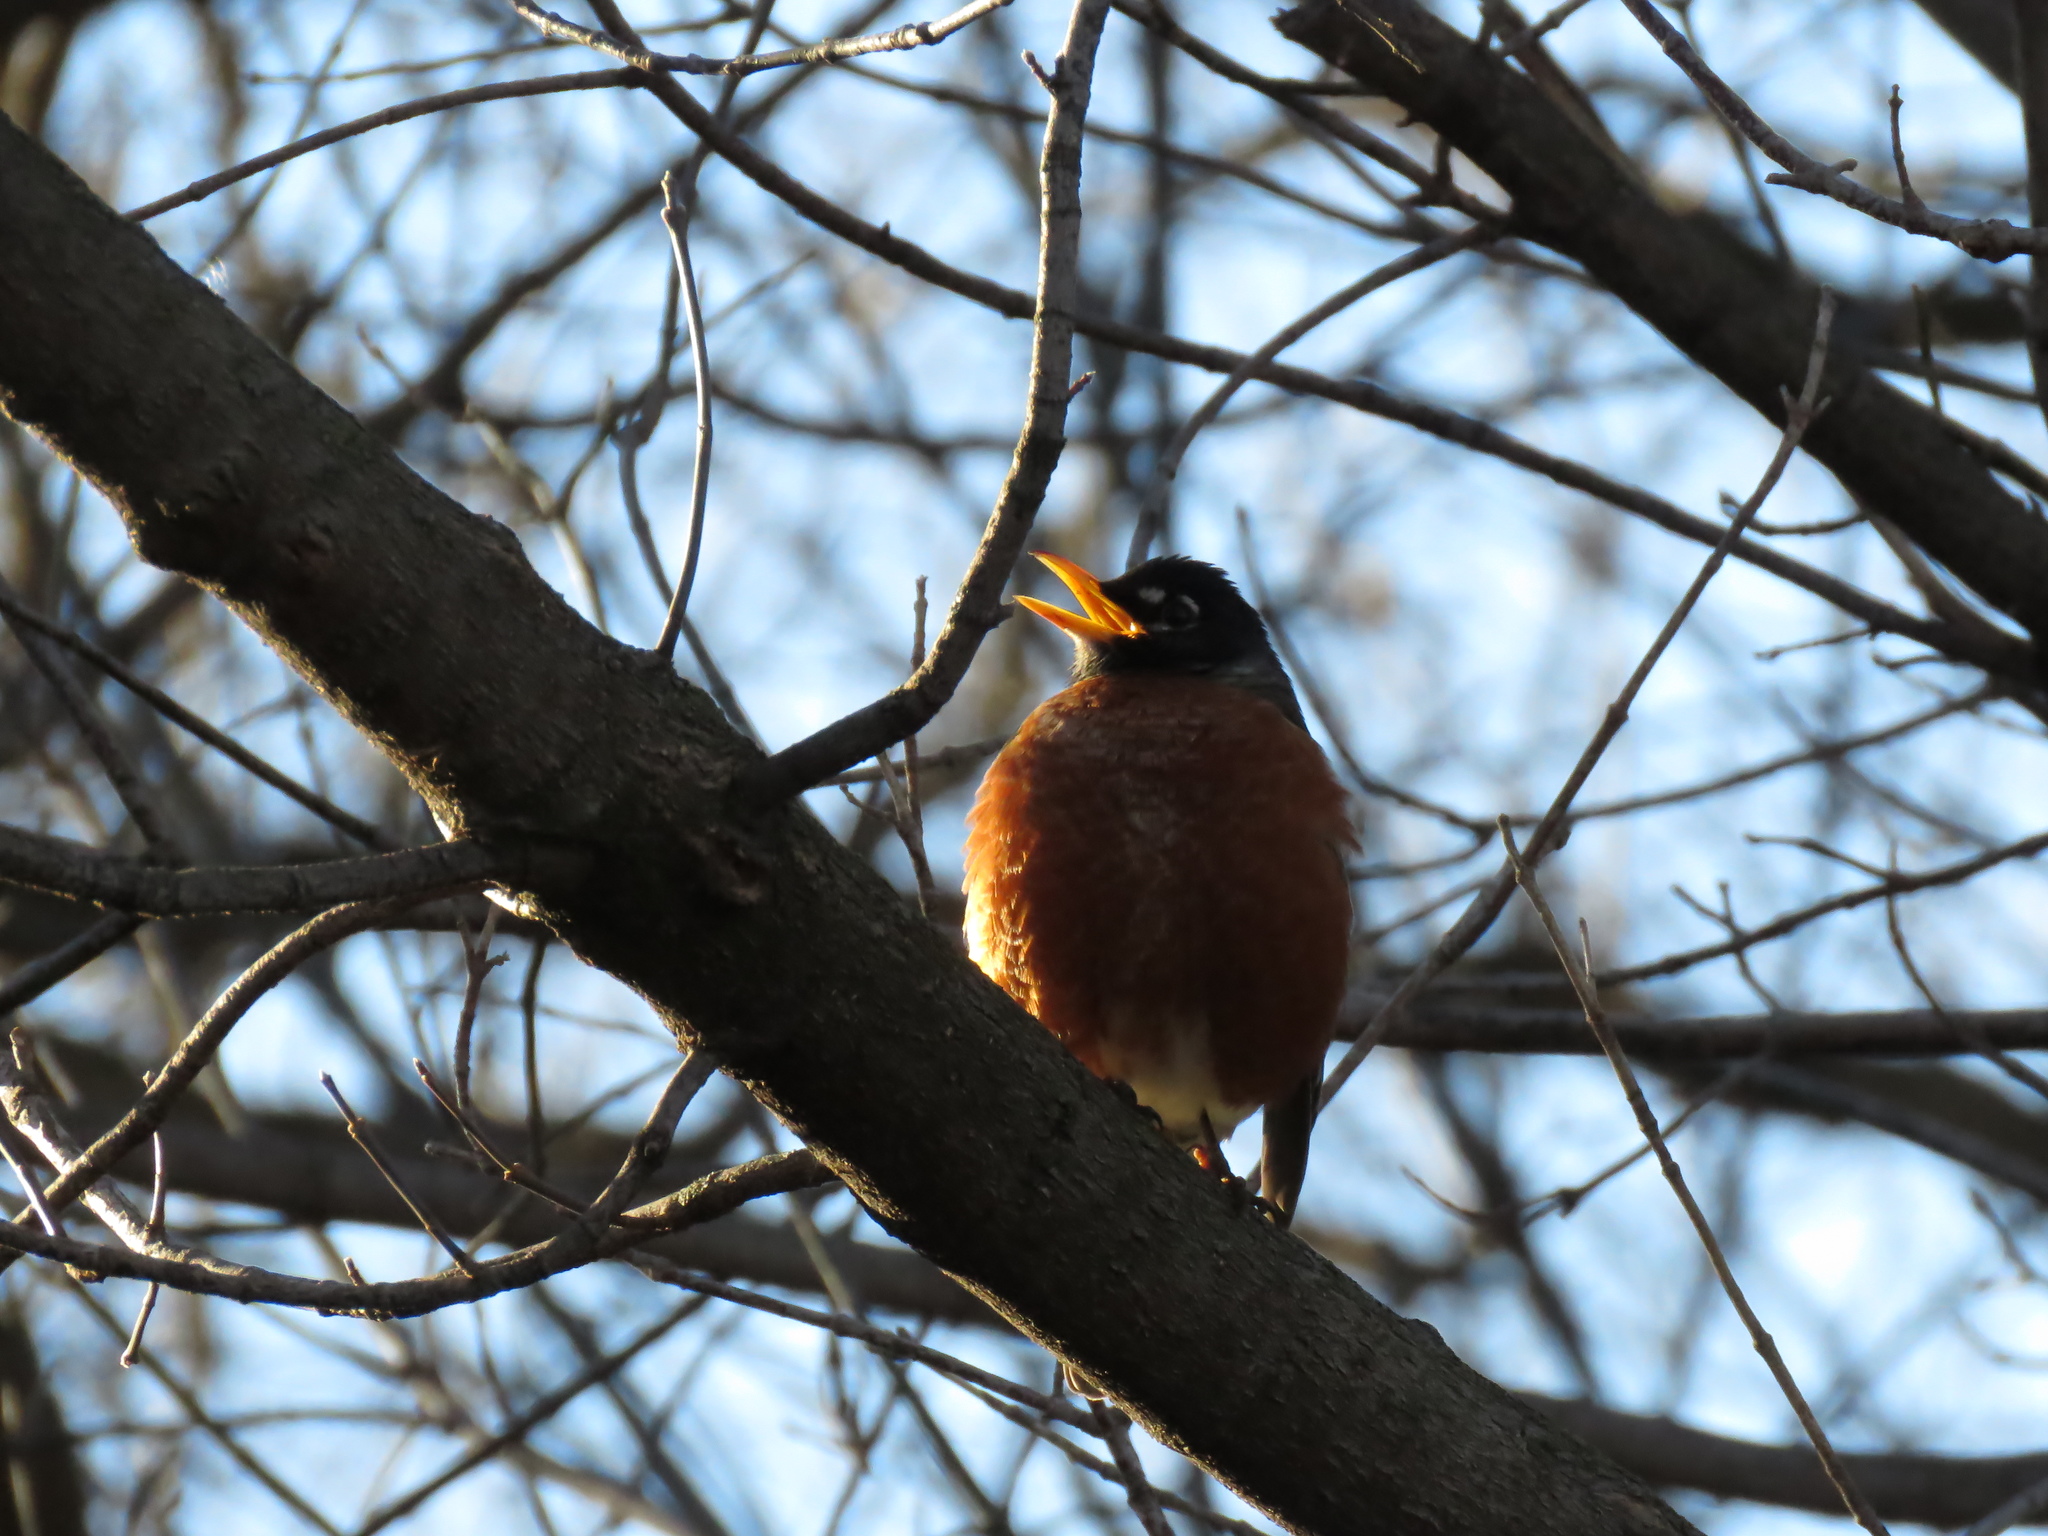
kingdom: Animalia
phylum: Chordata
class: Aves
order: Passeriformes
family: Turdidae
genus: Turdus
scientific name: Turdus migratorius
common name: American robin
